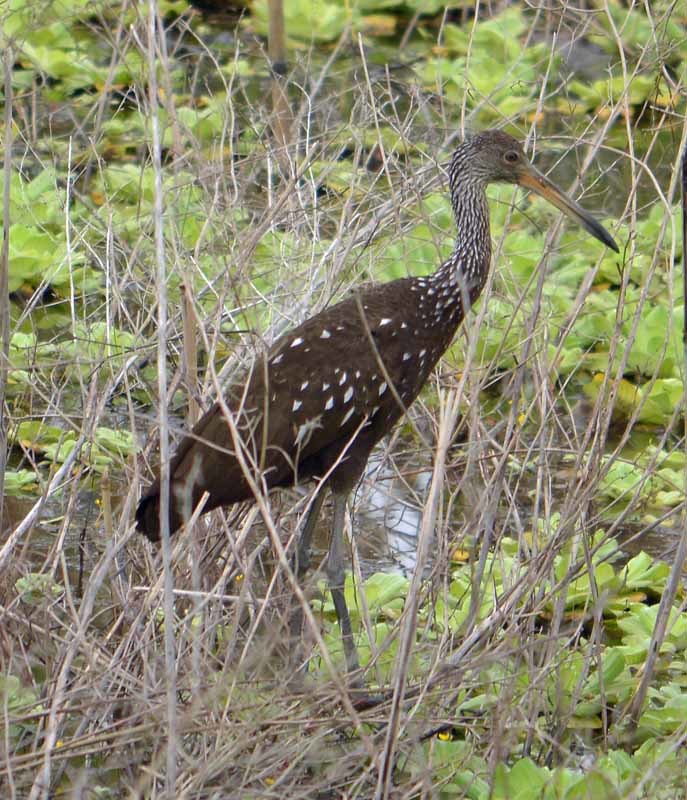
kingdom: Animalia
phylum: Chordata
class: Aves
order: Gruiformes
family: Aramidae
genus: Aramus
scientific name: Aramus guarauna
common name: Limpkin
